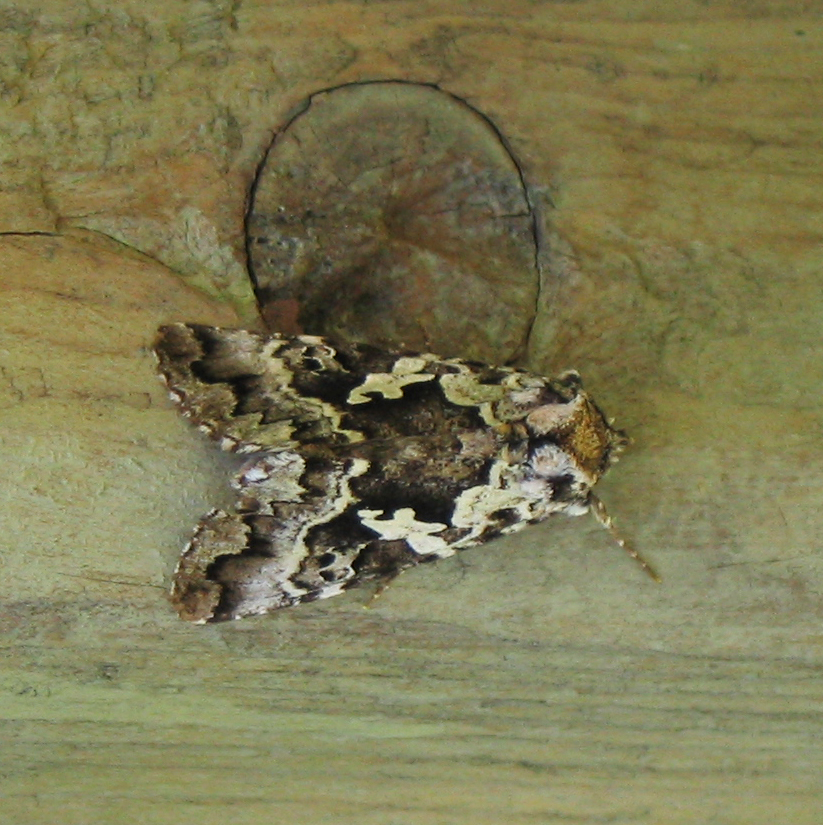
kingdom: Animalia
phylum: Arthropoda
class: Insecta
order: Lepidoptera
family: Noctuidae
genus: Syngrapha
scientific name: Syngrapha rectangula
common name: Angulated cutworm
